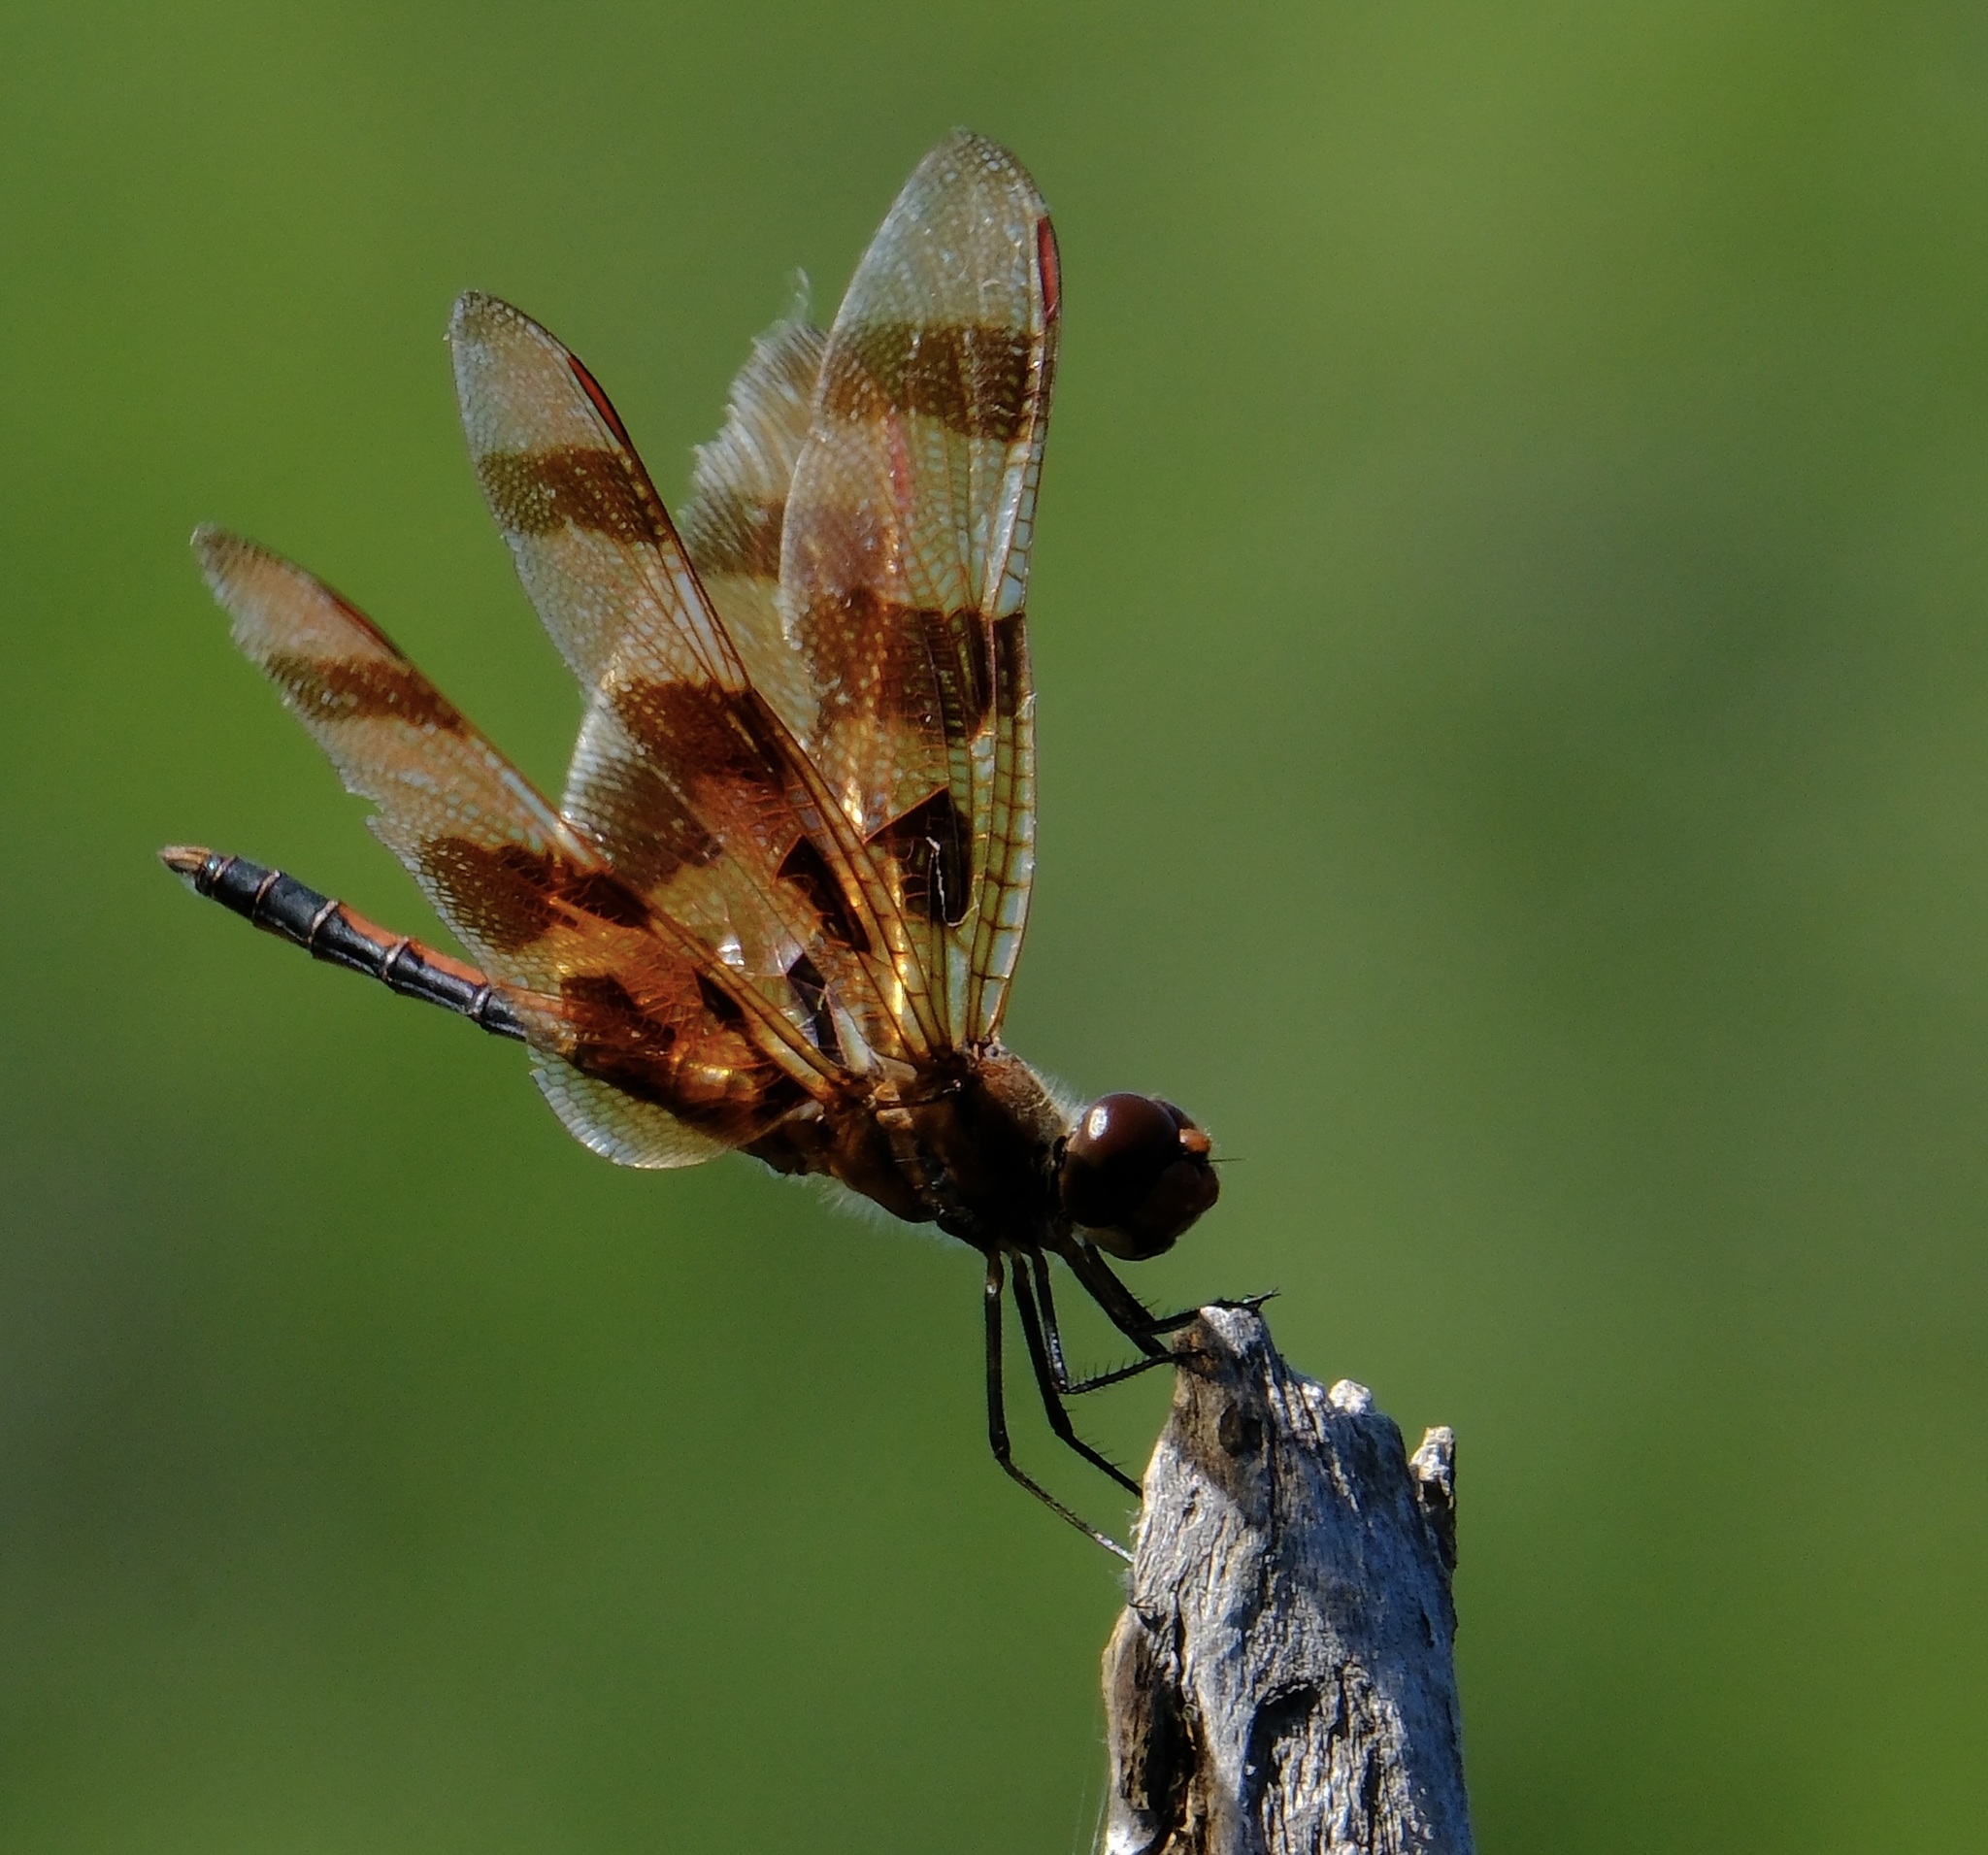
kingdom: Animalia
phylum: Arthropoda
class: Insecta
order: Odonata
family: Libellulidae
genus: Celithemis
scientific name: Celithemis eponina
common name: Halloween pennant
